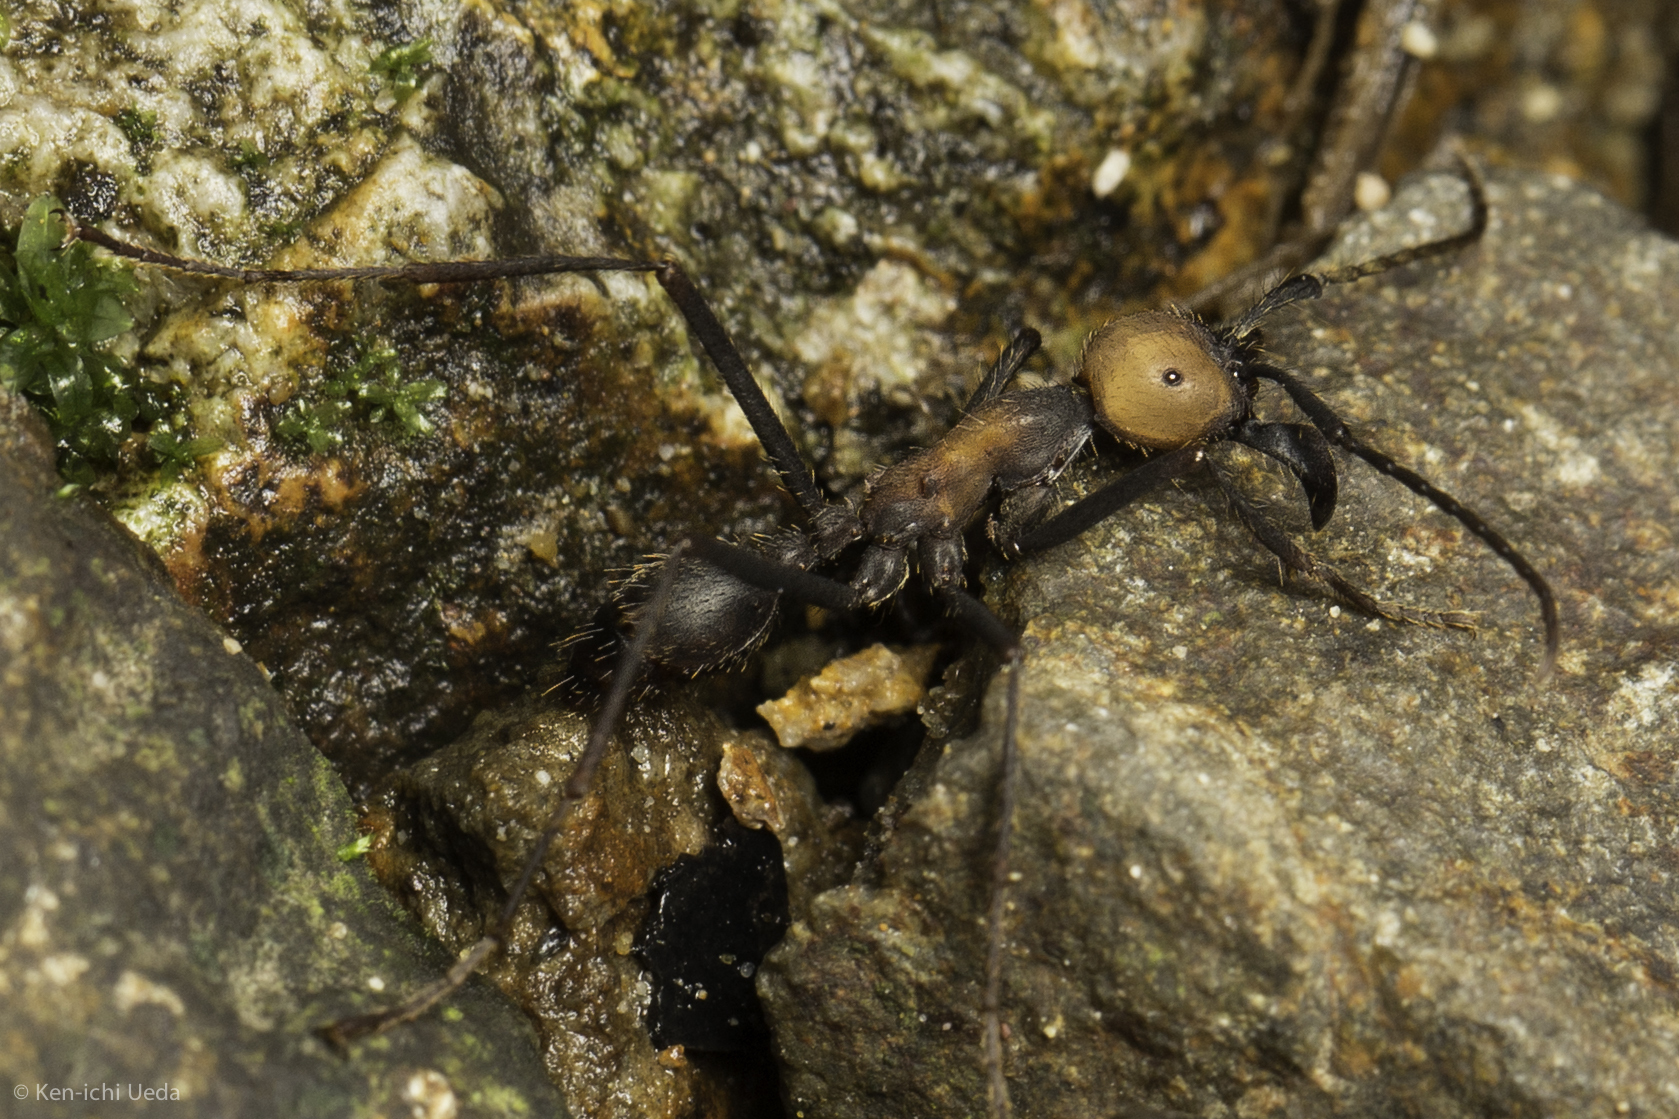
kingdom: Animalia
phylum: Arthropoda
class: Insecta
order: Hymenoptera
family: Formicidae
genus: Eciton
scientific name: Eciton burchellii
